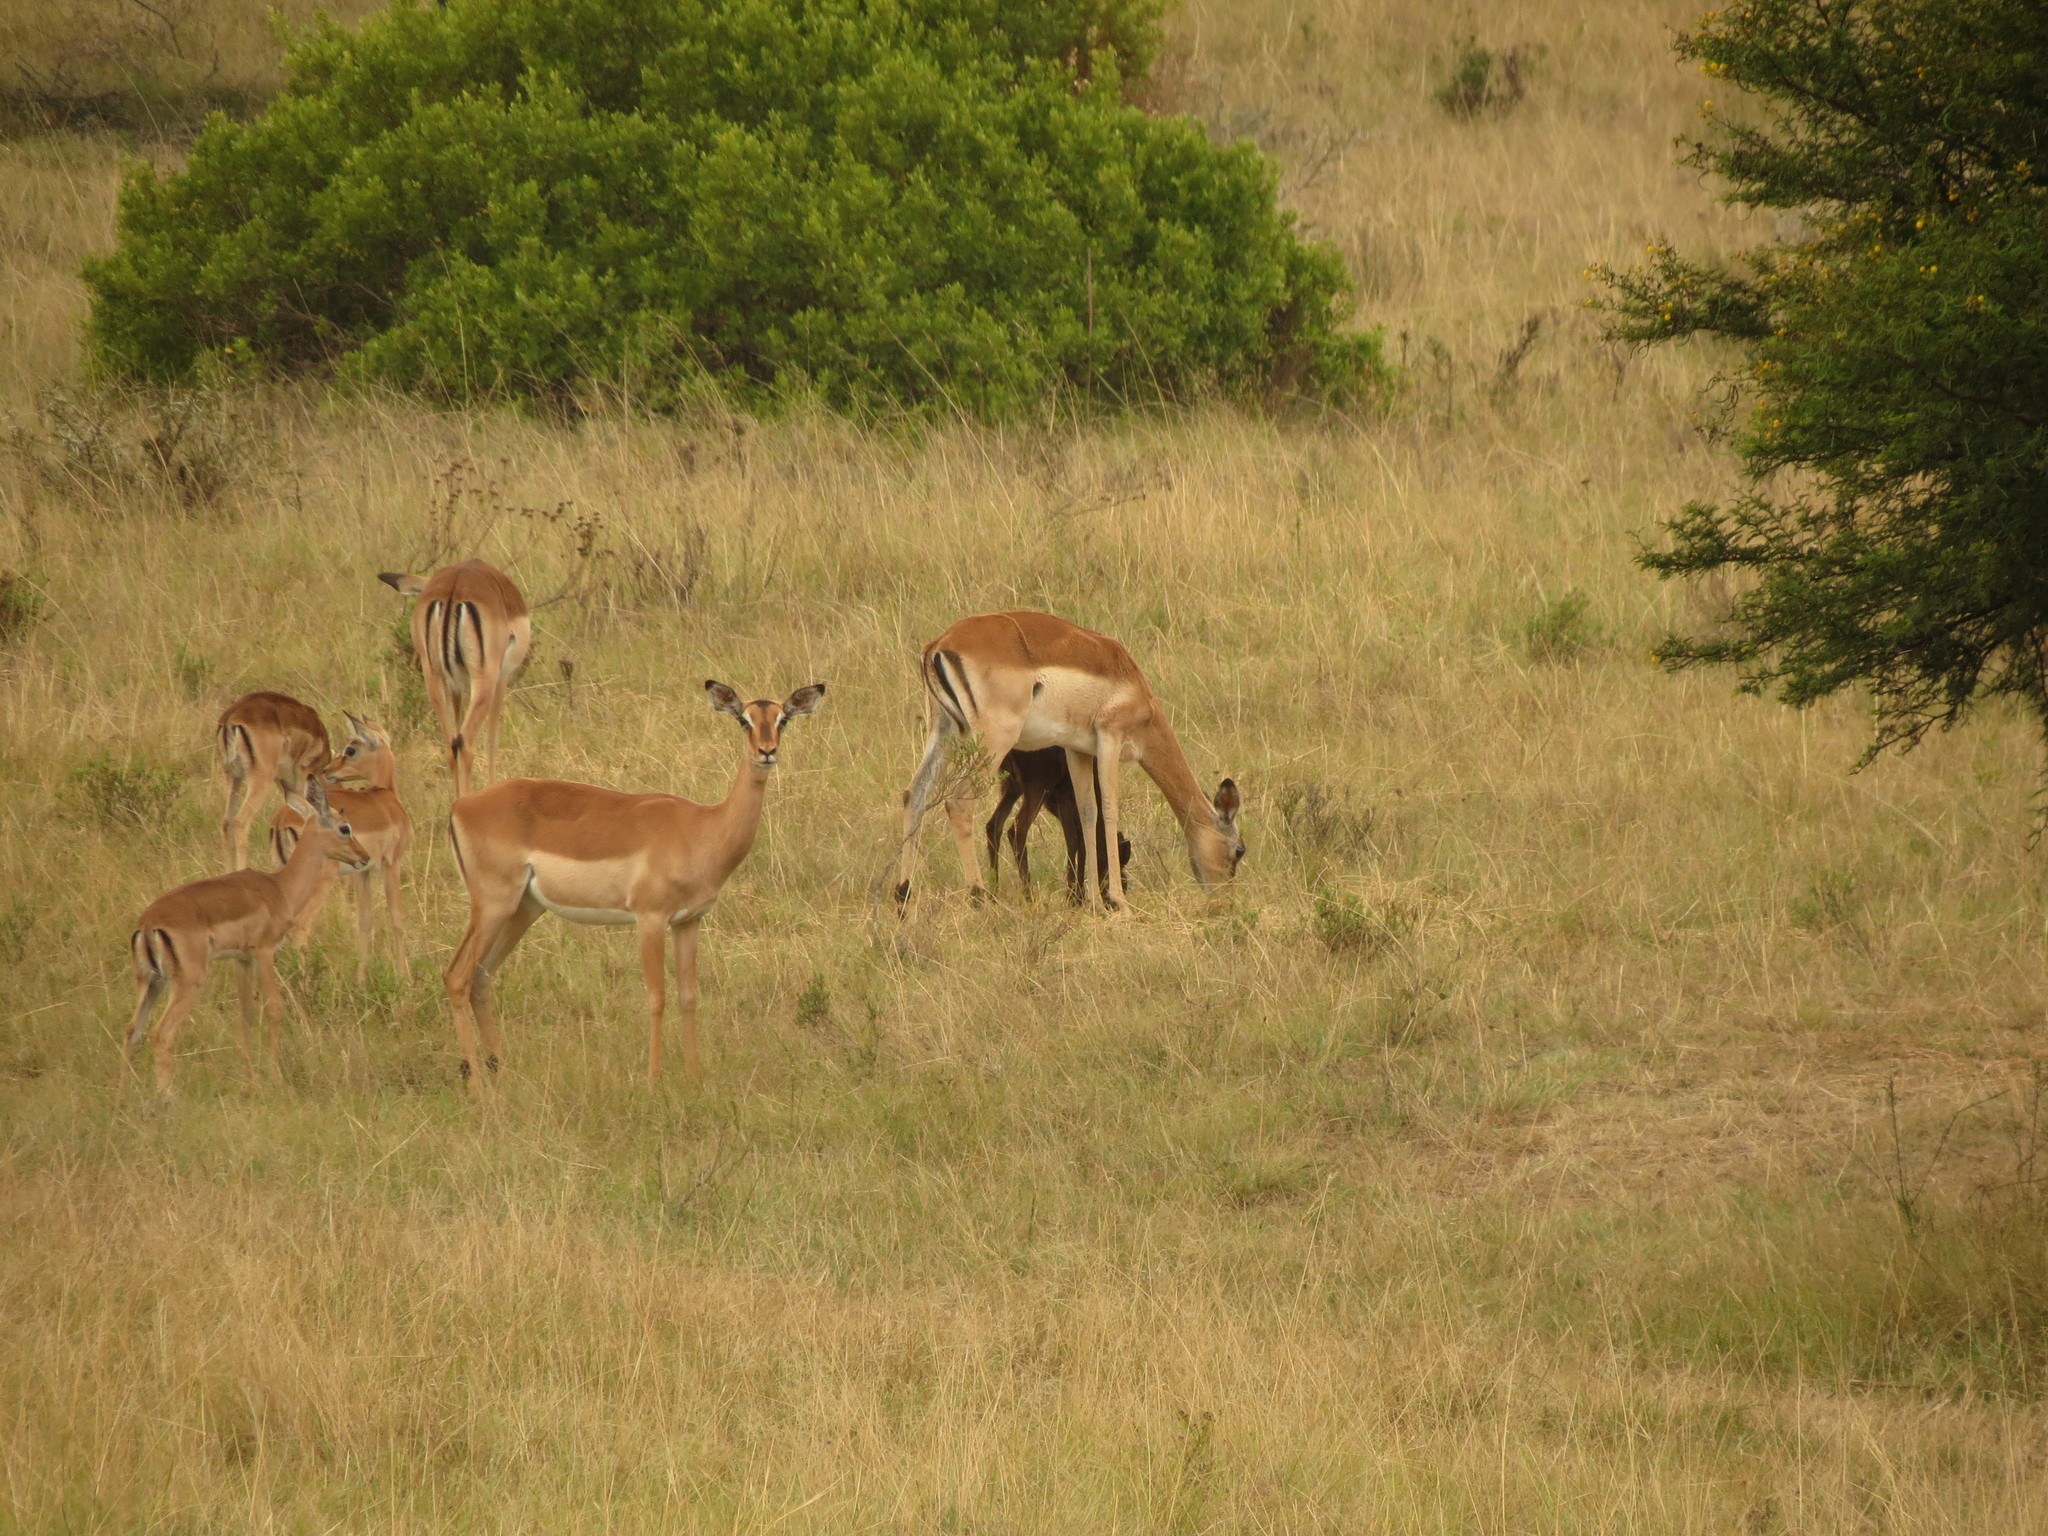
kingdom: Animalia
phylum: Chordata
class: Mammalia
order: Artiodactyla
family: Bovidae
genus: Aepyceros
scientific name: Aepyceros melampus
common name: Impala
